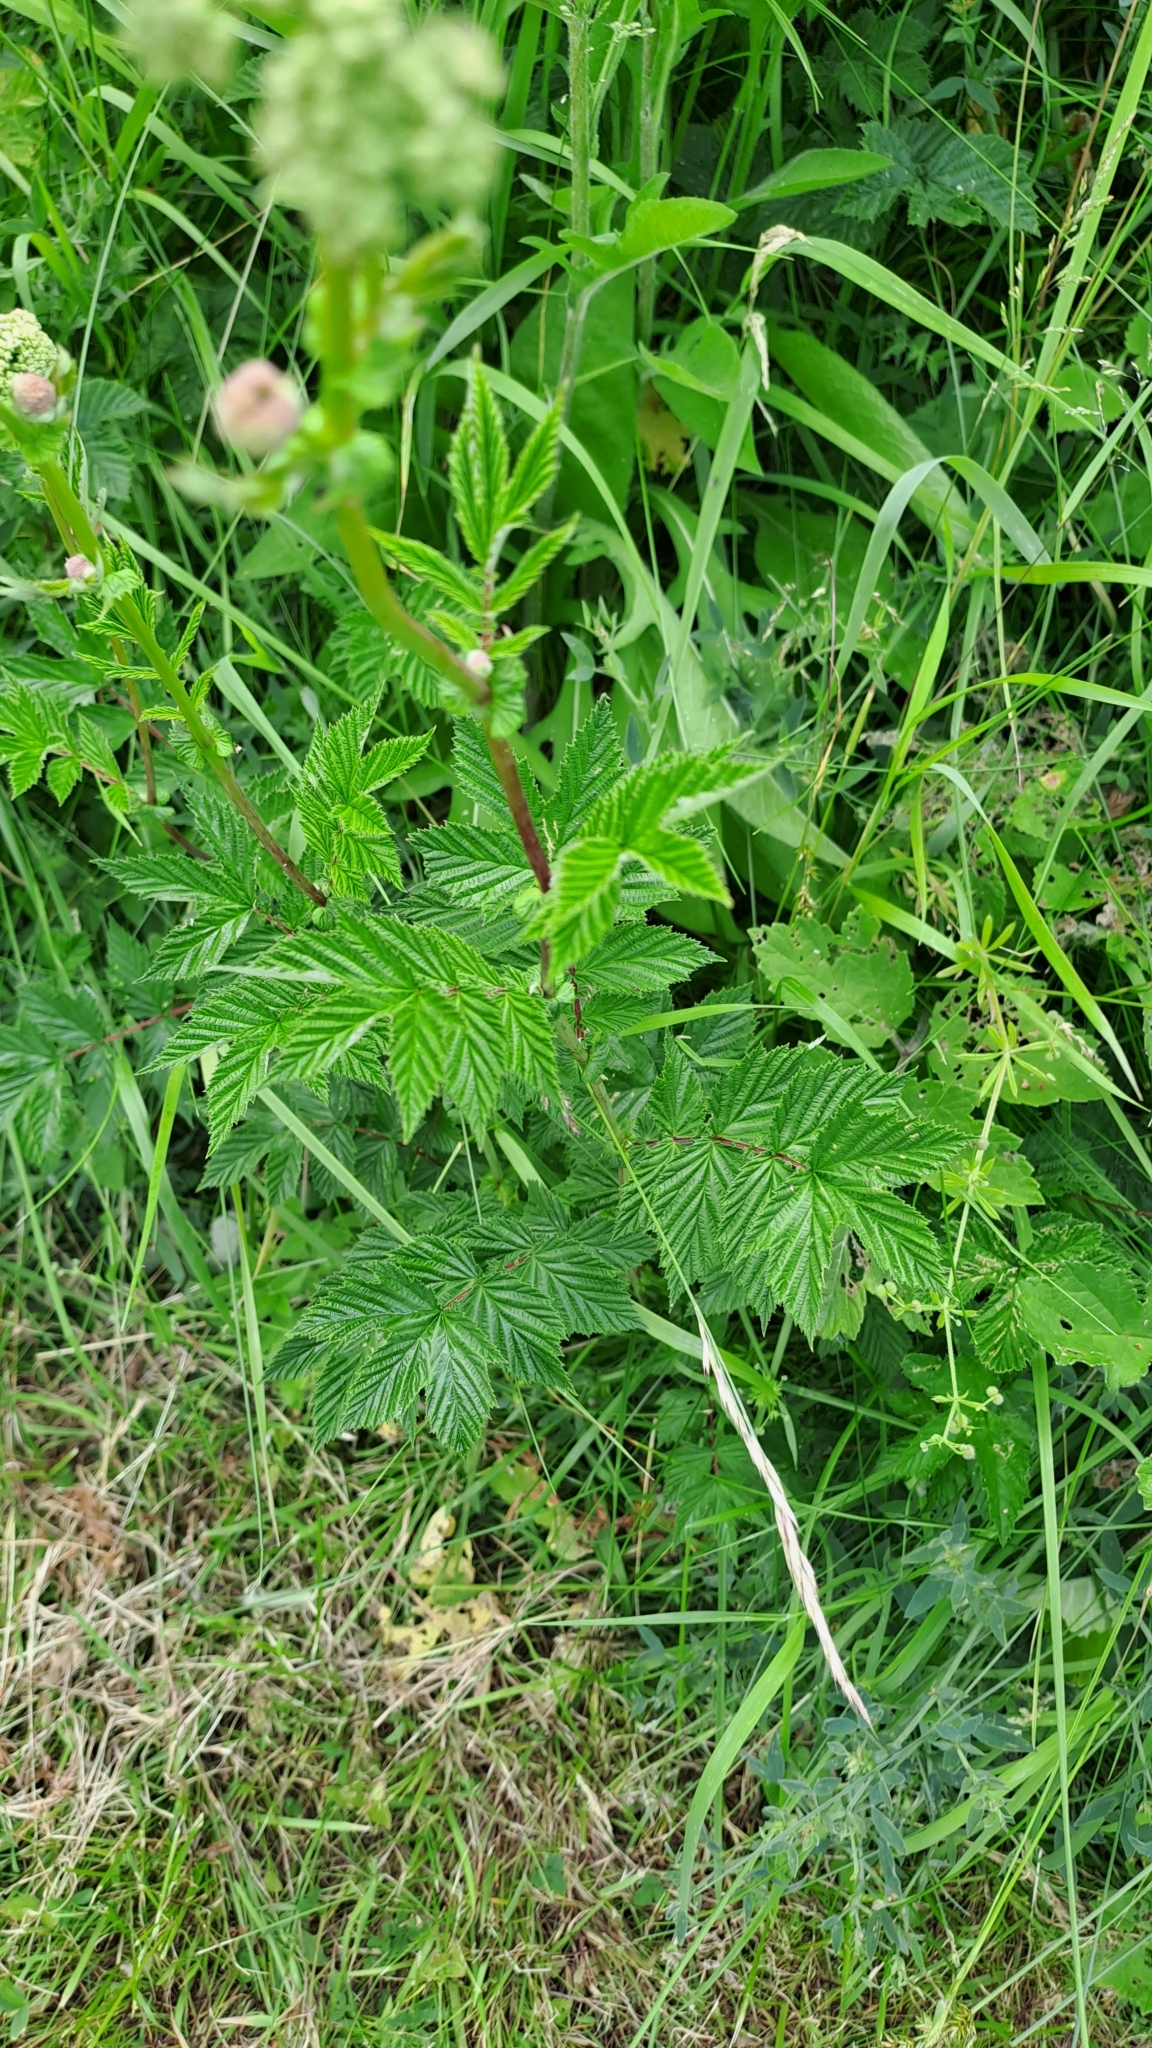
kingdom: Plantae
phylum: Tracheophyta
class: Magnoliopsida
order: Rosales
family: Rosaceae
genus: Filipendula
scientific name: Filipendula ulmaria
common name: Meadowsweet
